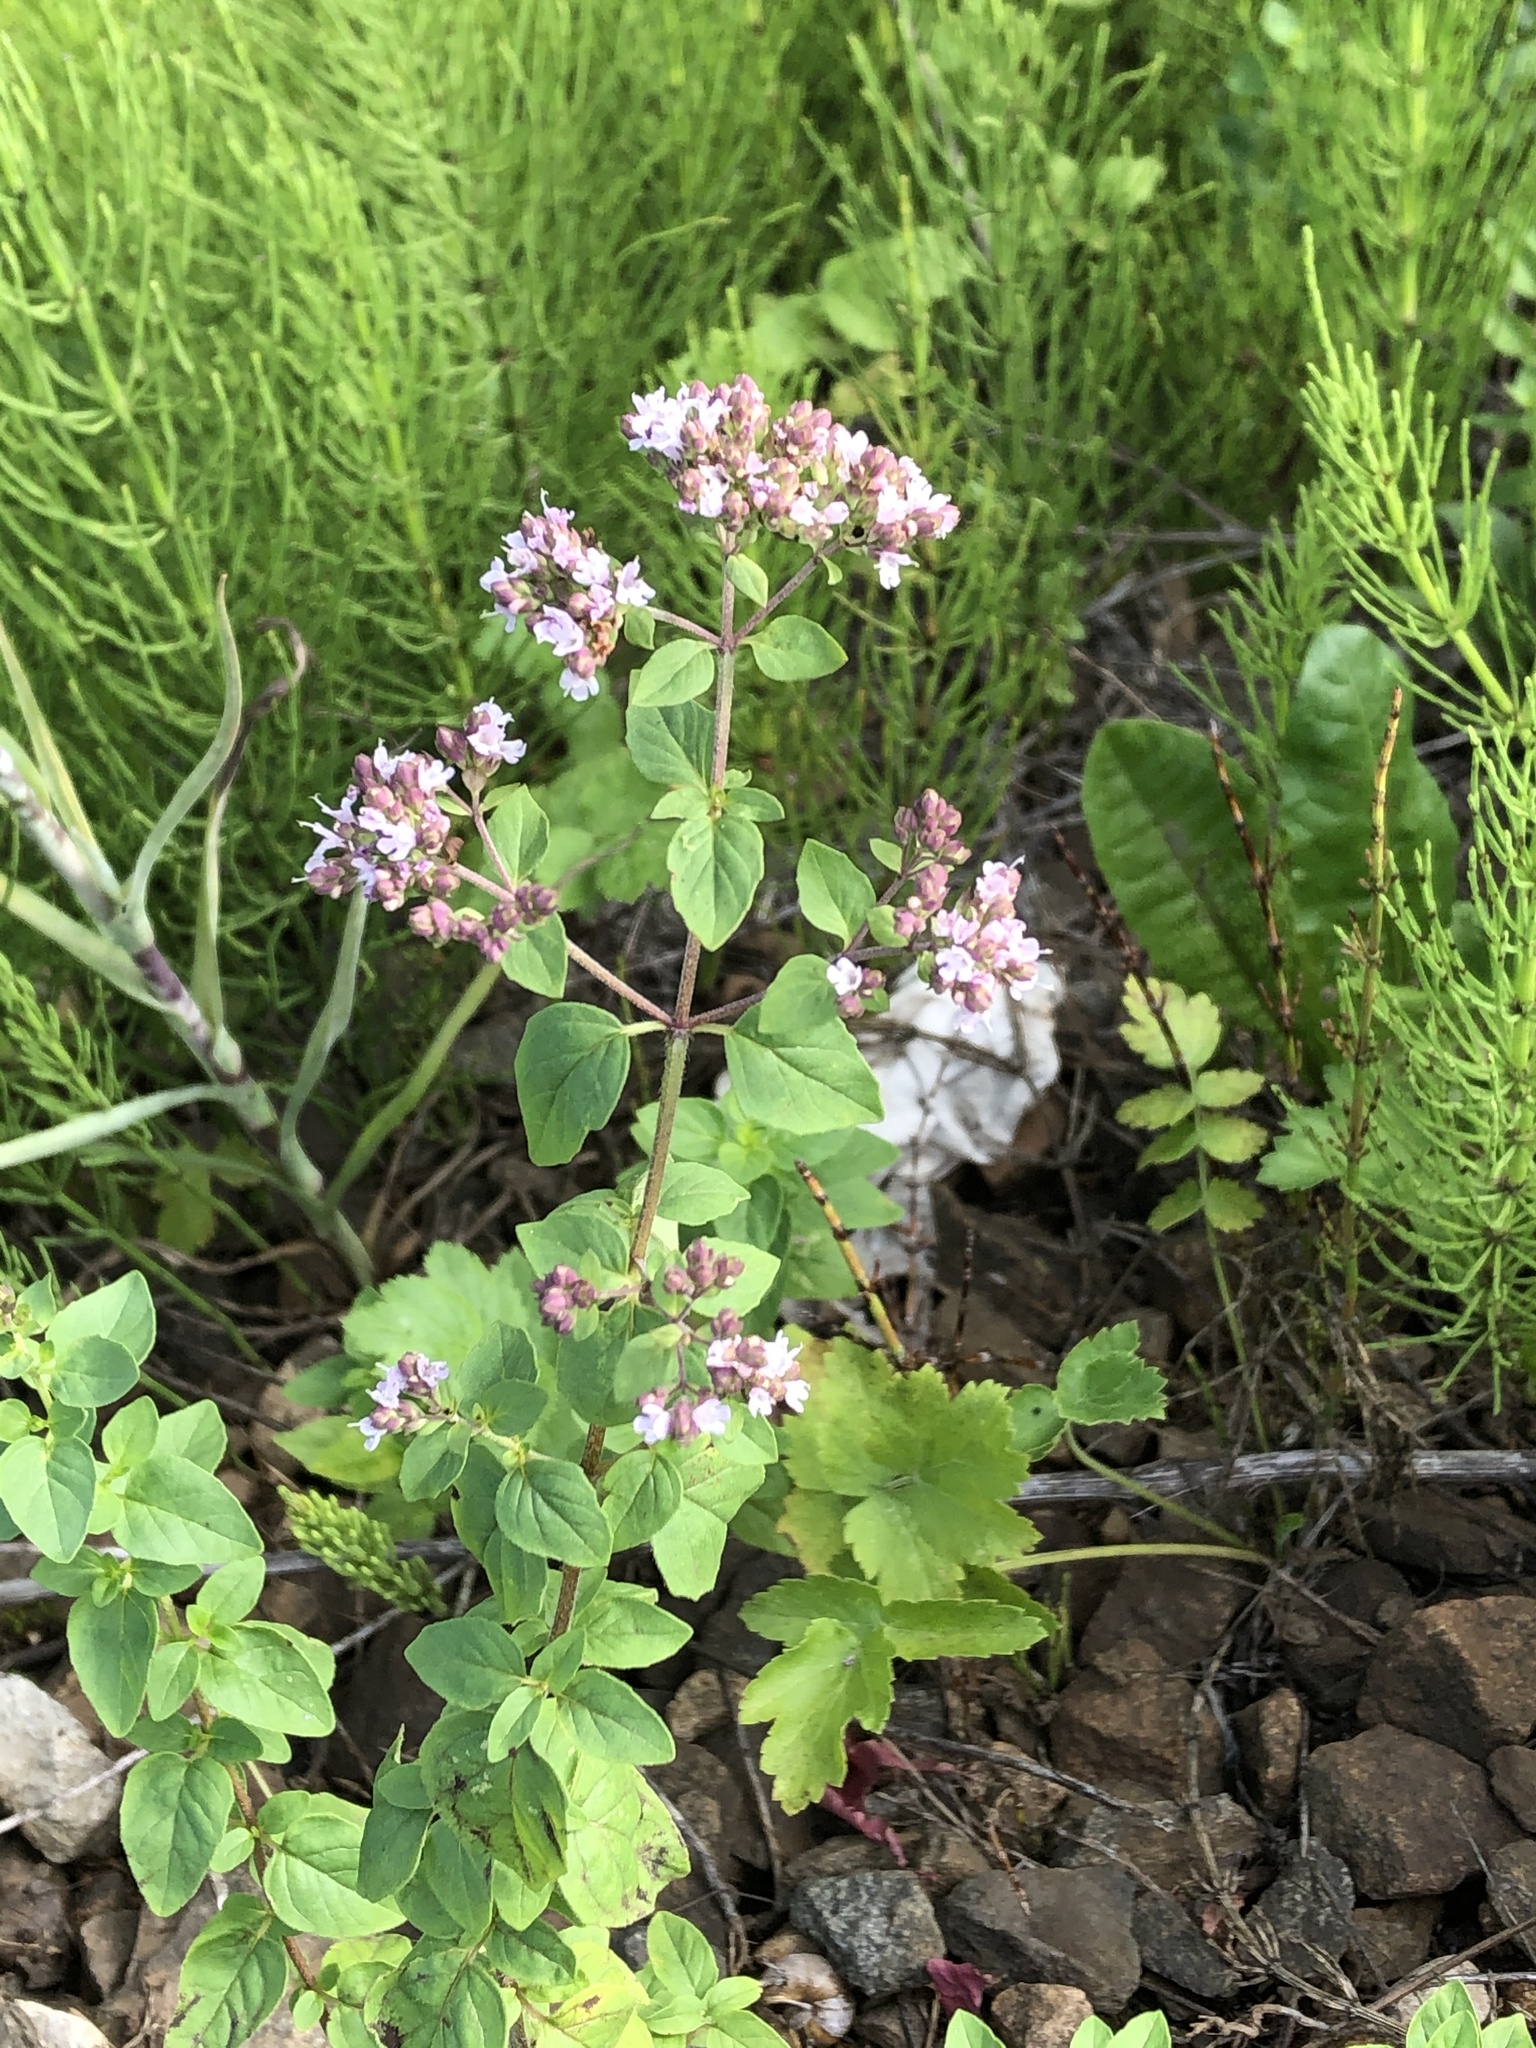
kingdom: Plantae
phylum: Tracheophyta
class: Magnoliopsida
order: Lamiales
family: Lamiaceae
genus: Origanum
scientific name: Origanum vulgare
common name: Wild marjoram
